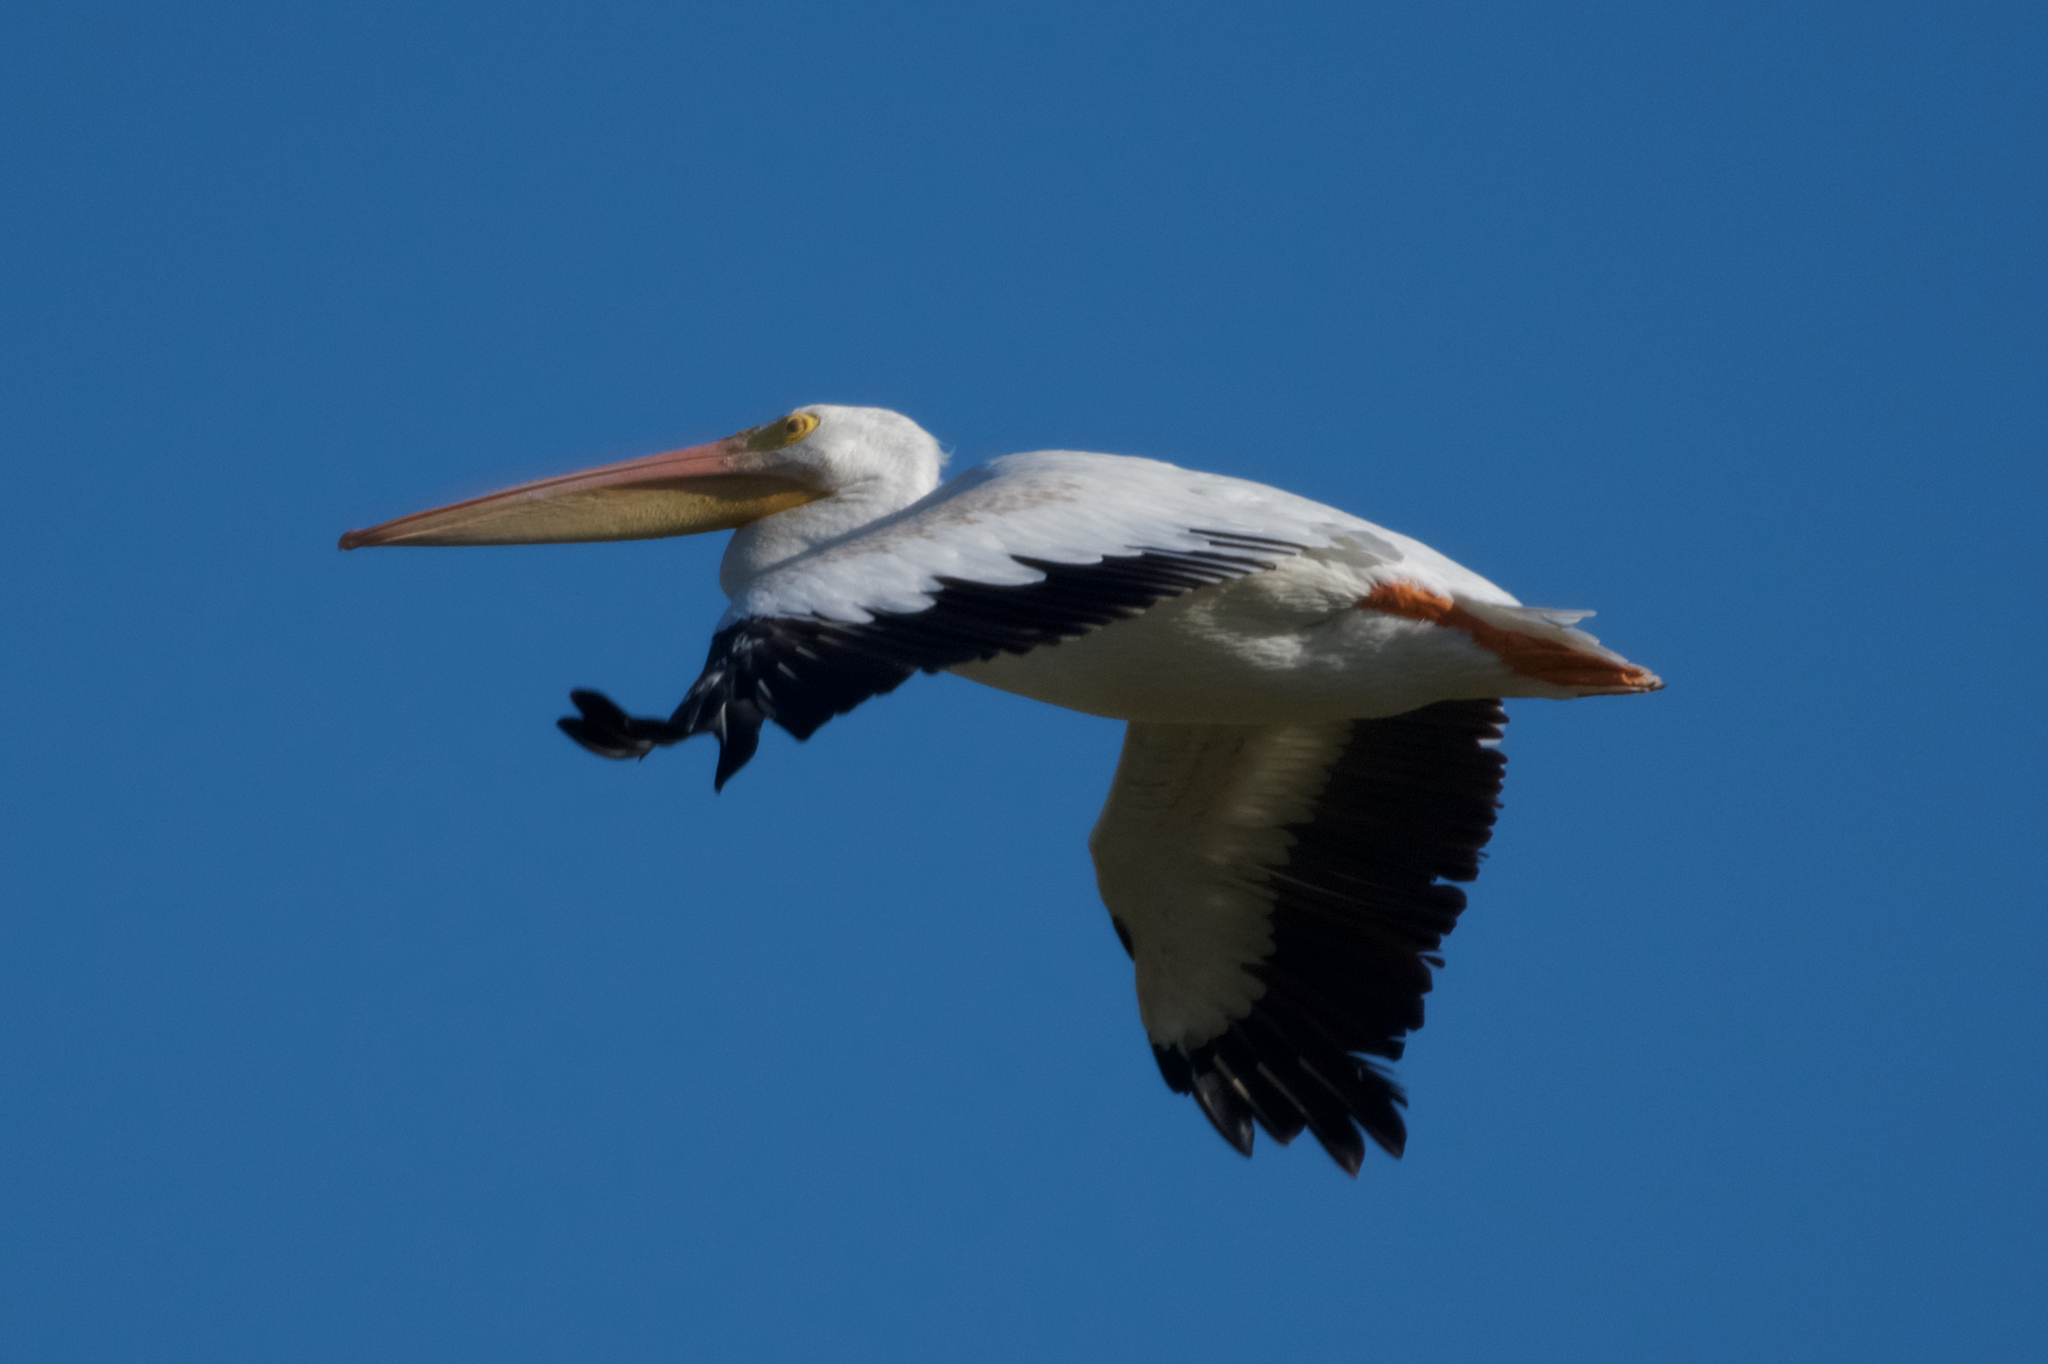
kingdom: Animalia
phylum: Chordata
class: Aves
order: Pelecaniformes
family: Pelecanidae
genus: Pelecanus
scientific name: Pelecanus erythrorhynchos
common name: American white pelican
